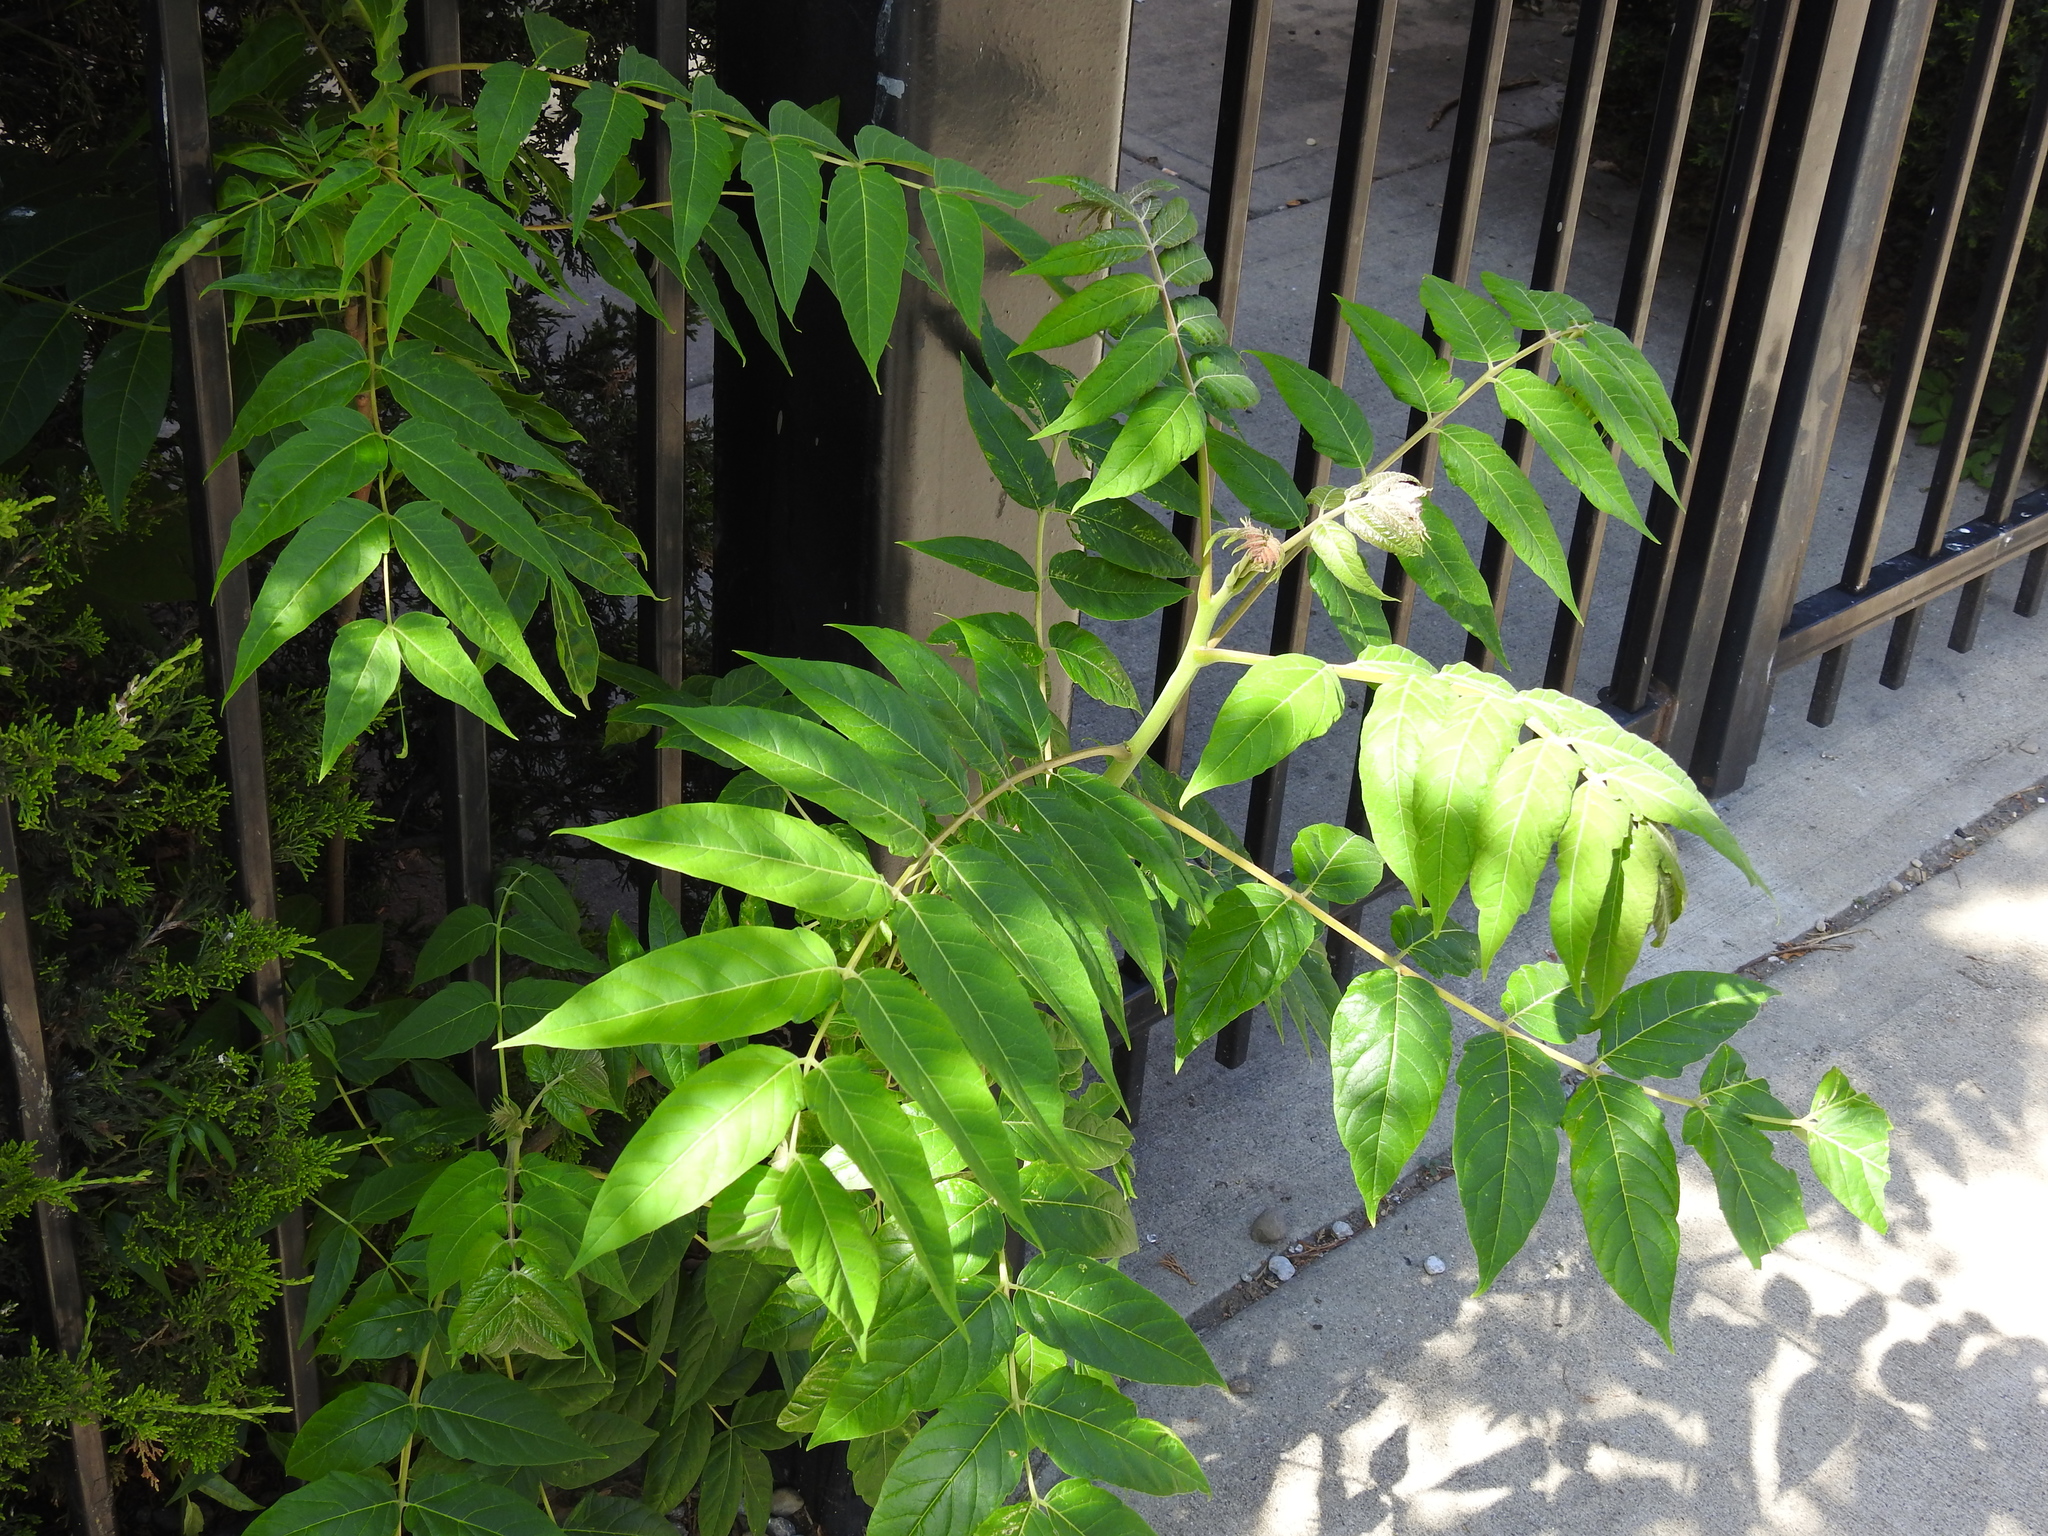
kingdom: Plantae
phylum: Tracheophyta
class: Magnoliopsida
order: Sapindales
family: Simaroubaceae
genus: Ailanthus
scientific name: Ailanthus altissima
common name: Tree-of-heaven
